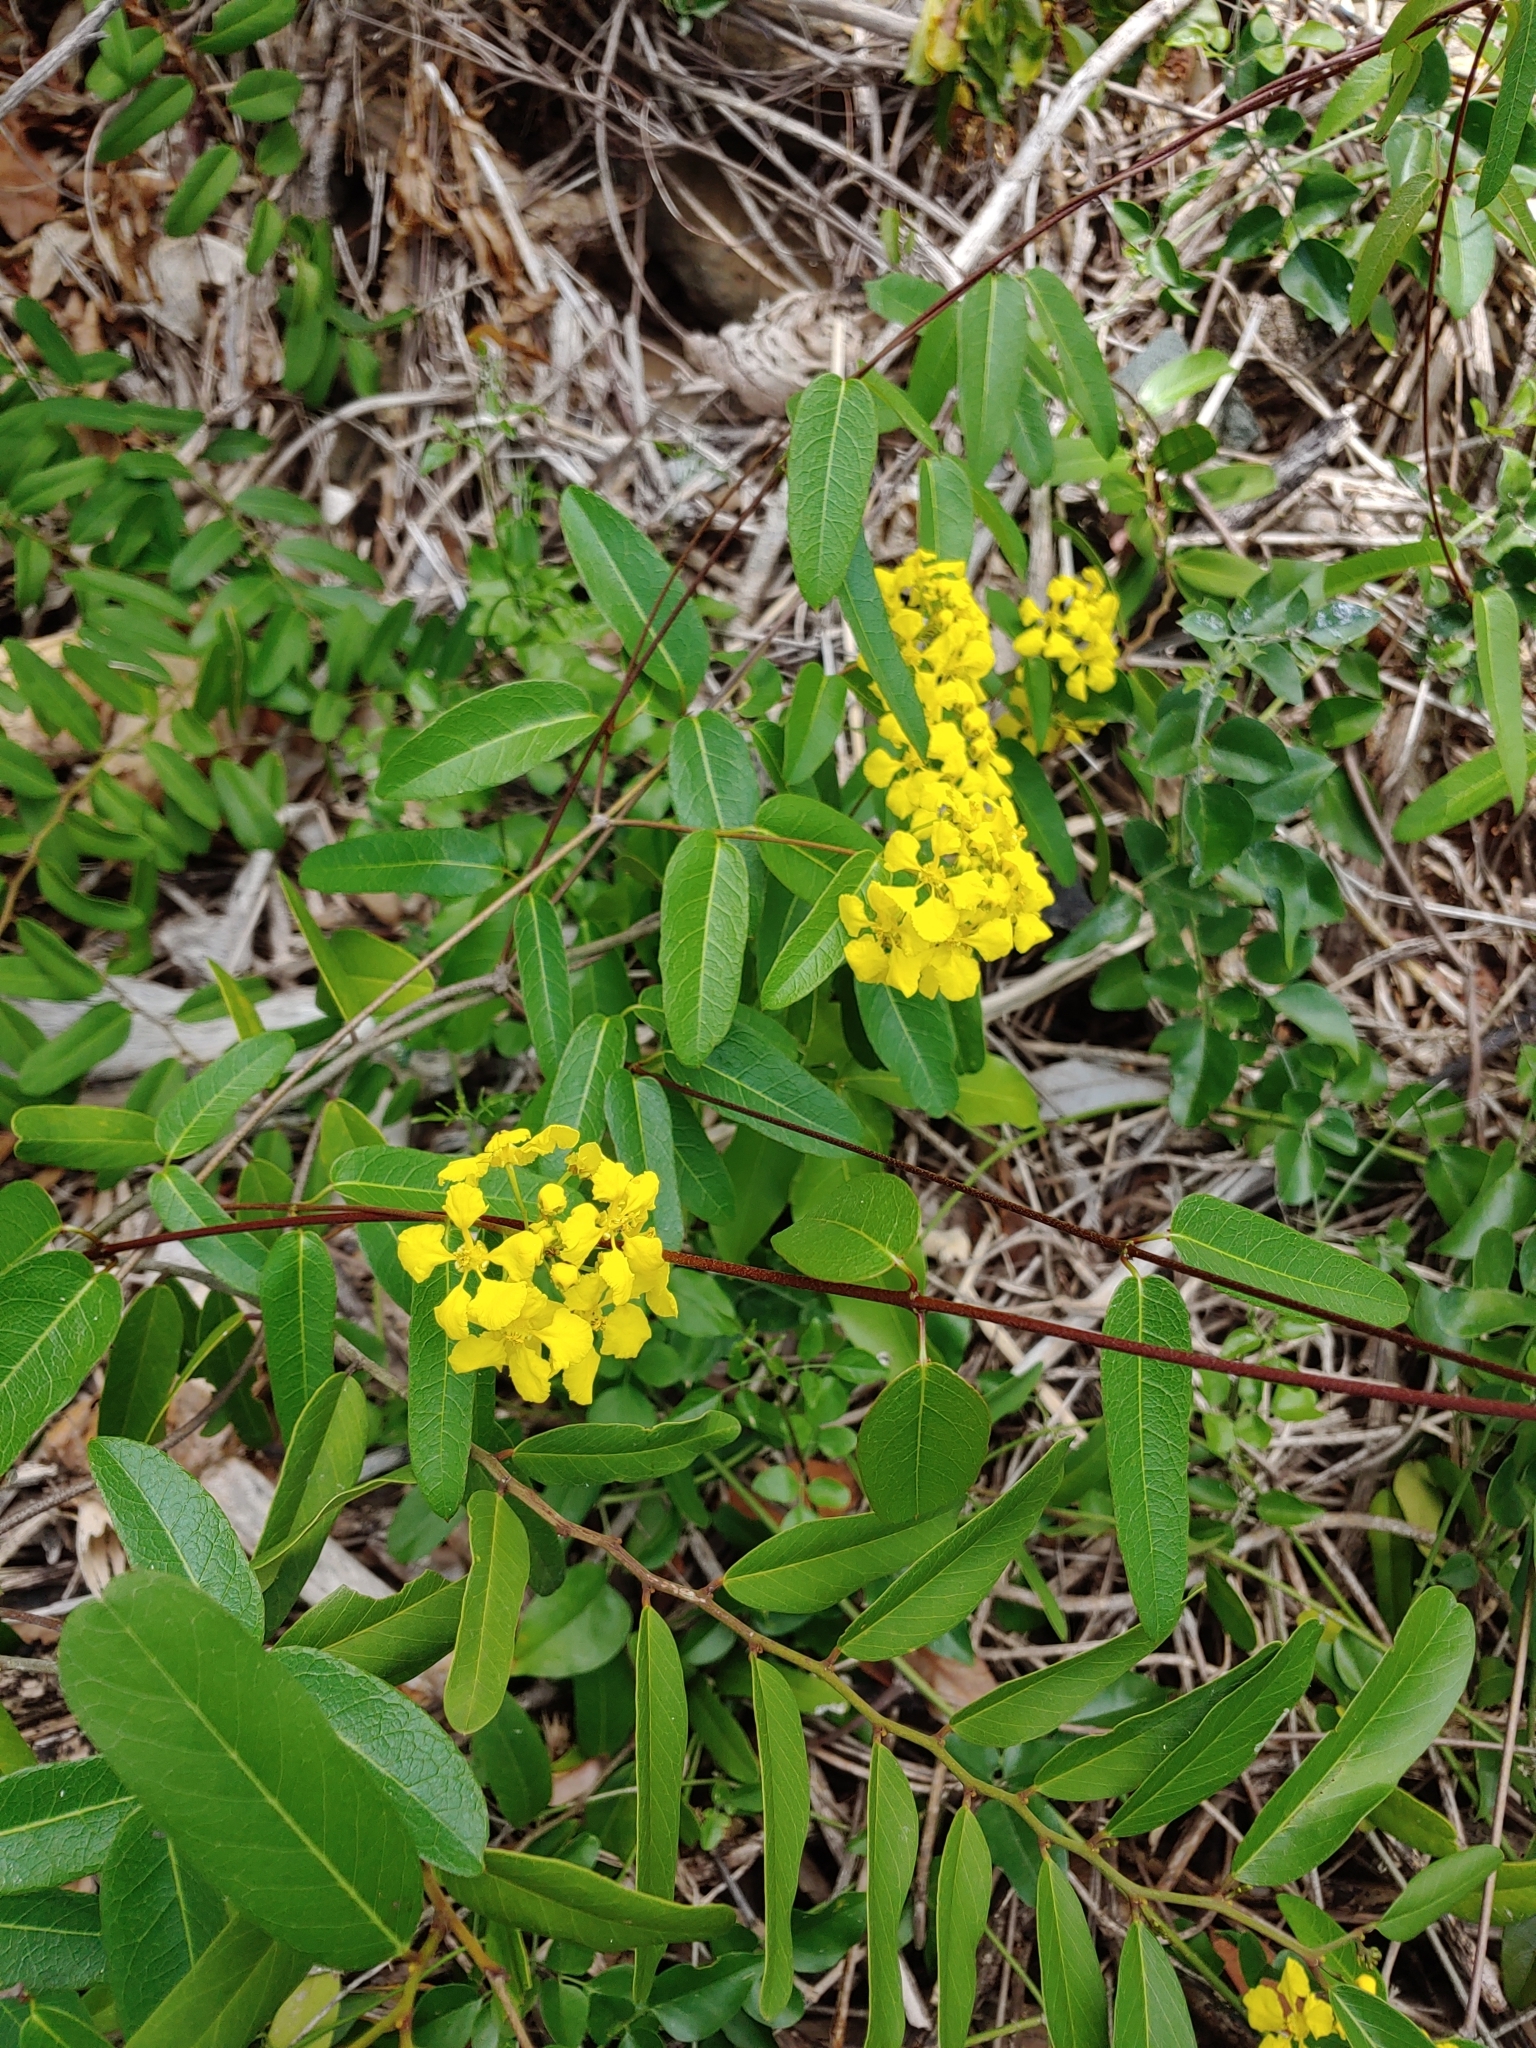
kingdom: Plantae
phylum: Tracheophyta
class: Magnoliopsida
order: Malpighiales
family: Malpighiaceae
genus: Stigmaphyllon
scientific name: Stigmaphyllon emarginatum
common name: Monarch amazonvine
